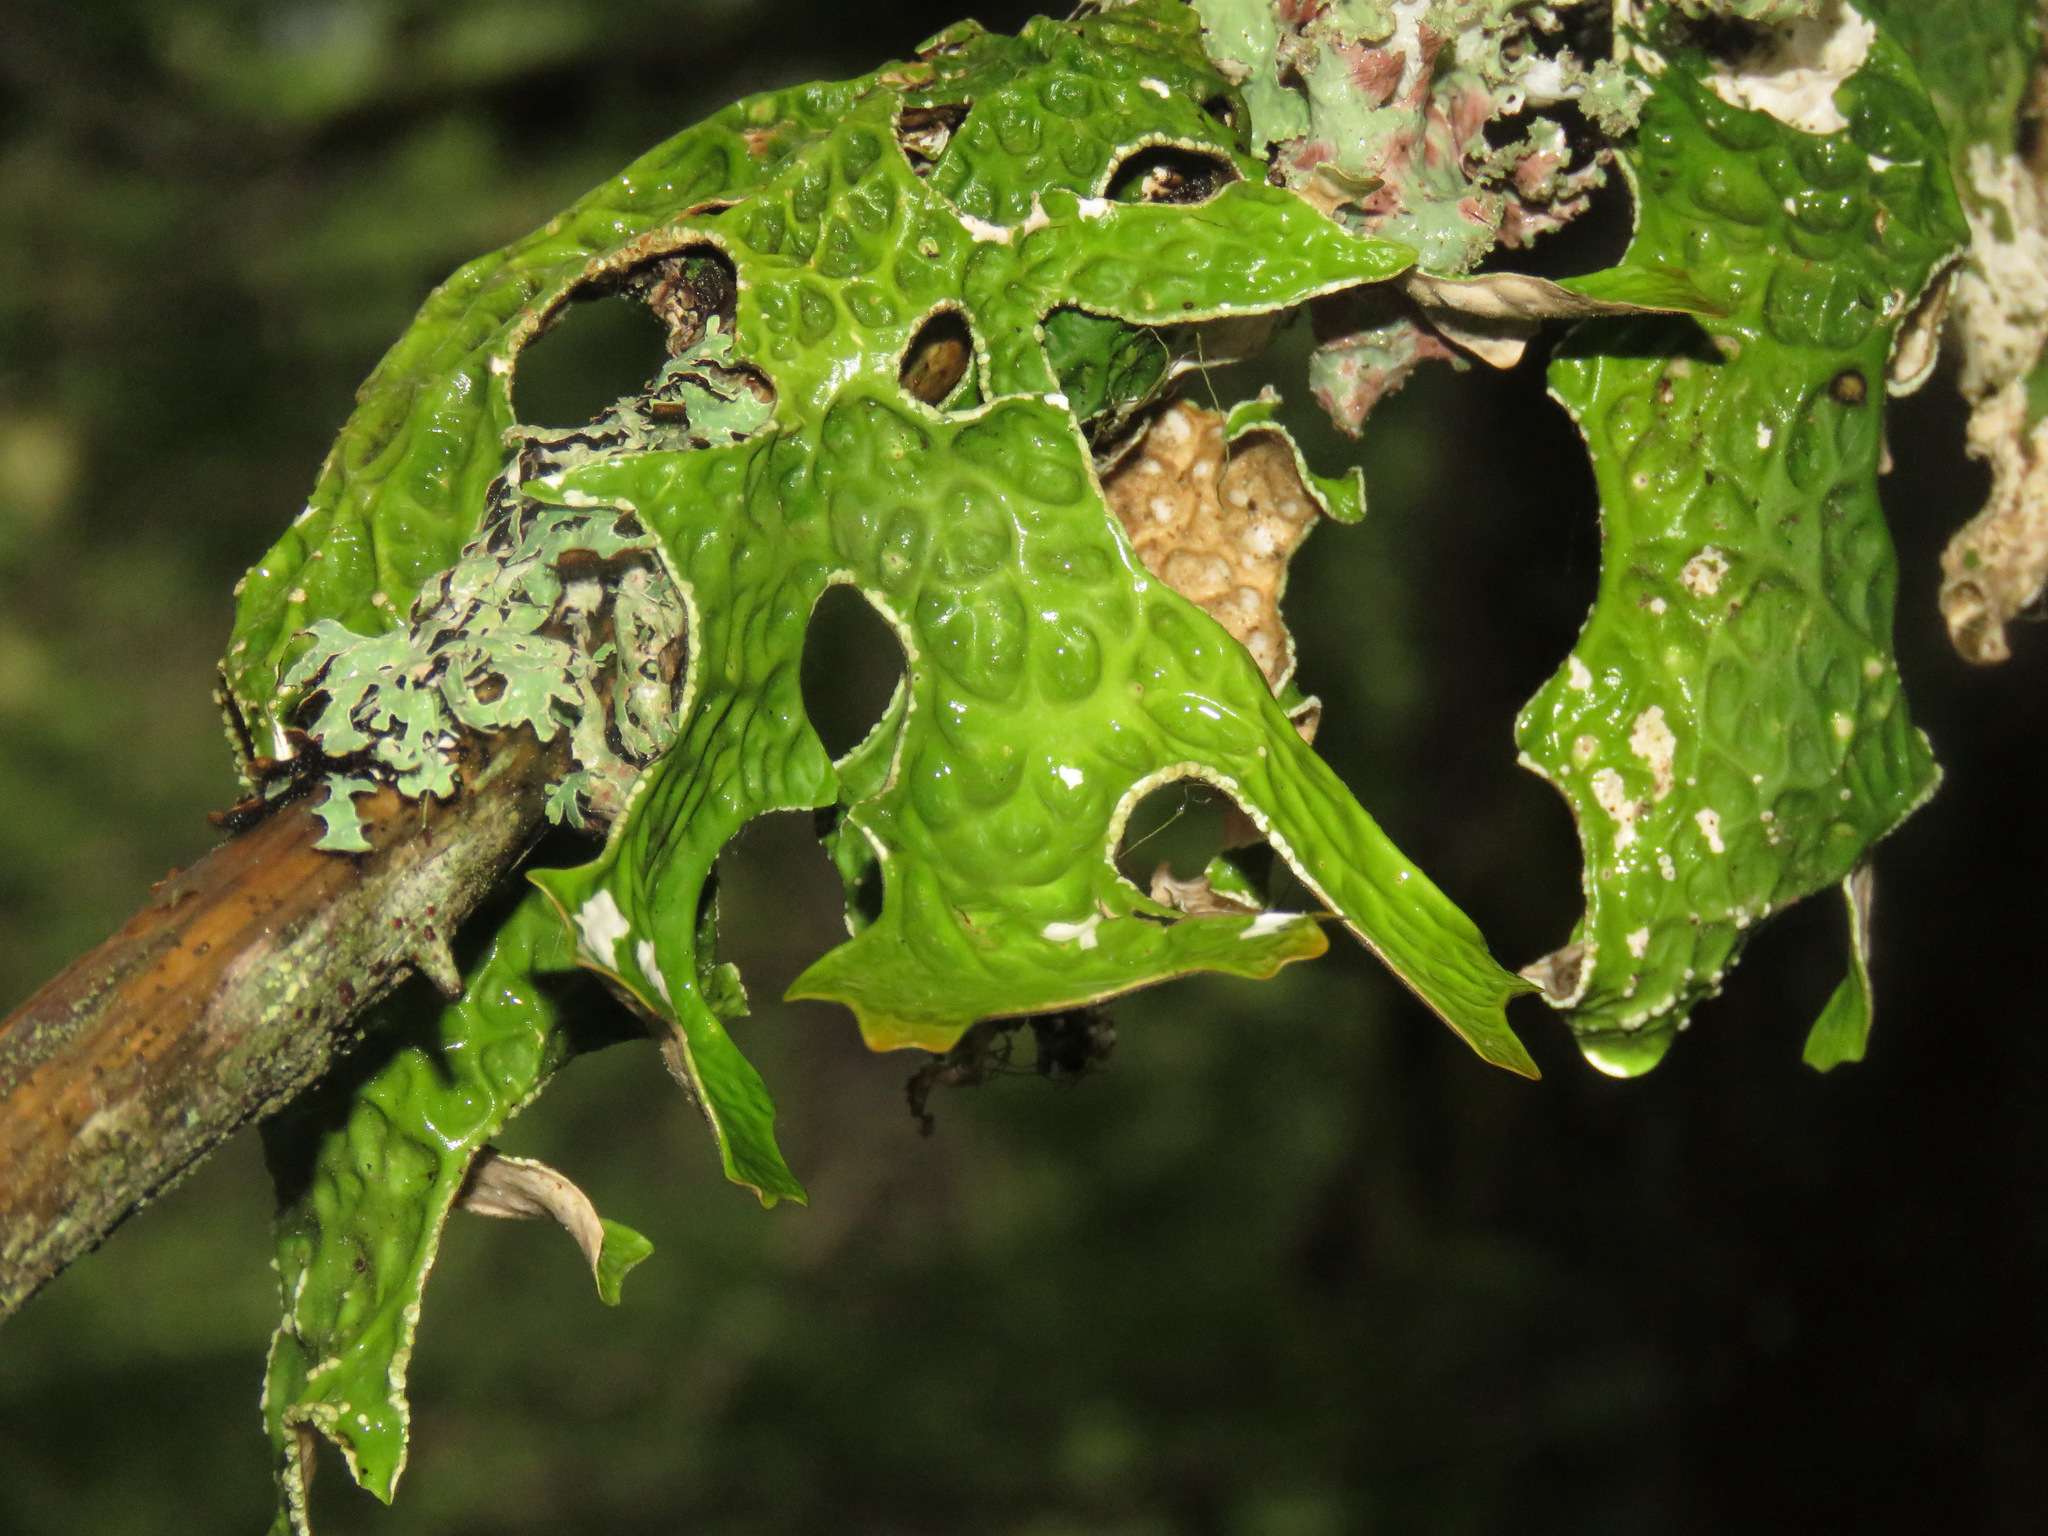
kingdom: Fungi
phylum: Ascomycota
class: Lecanoromycetes
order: Peltigerales
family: Lobariaceae
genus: Lobaria
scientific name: Lobaria pulmonaria
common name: Lungwort
